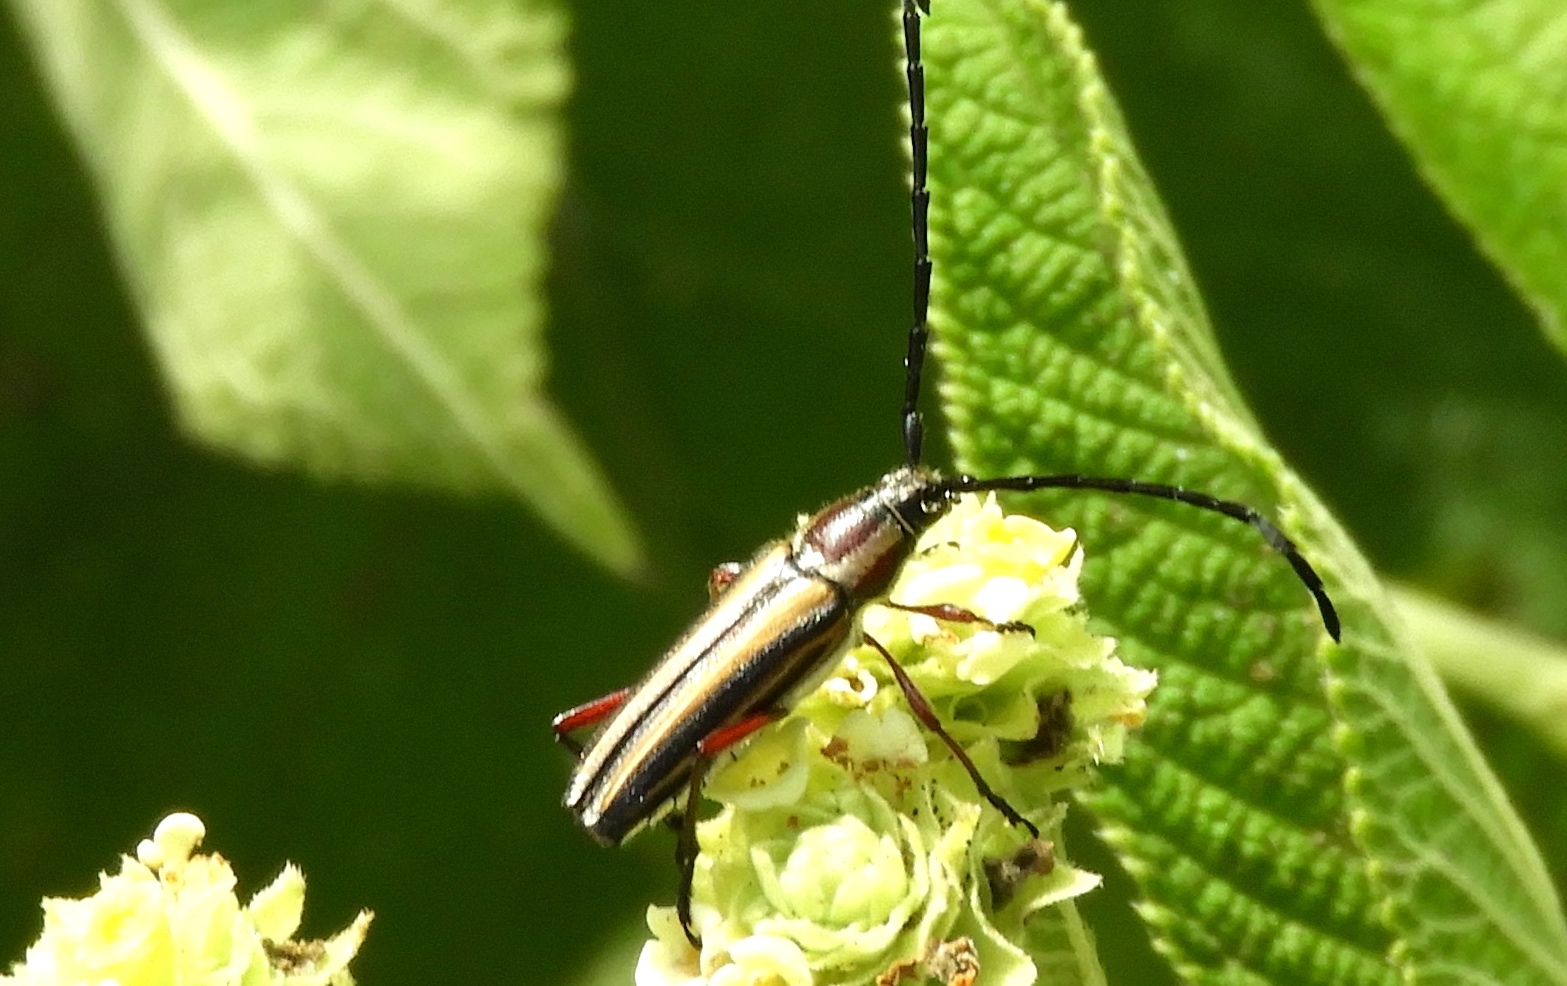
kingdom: Animalia
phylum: Arthropoda
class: Insecta
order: Coleoptera
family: Cerambycidae
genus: Sphaenothecus
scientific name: Sphaenothecus bilineatus
